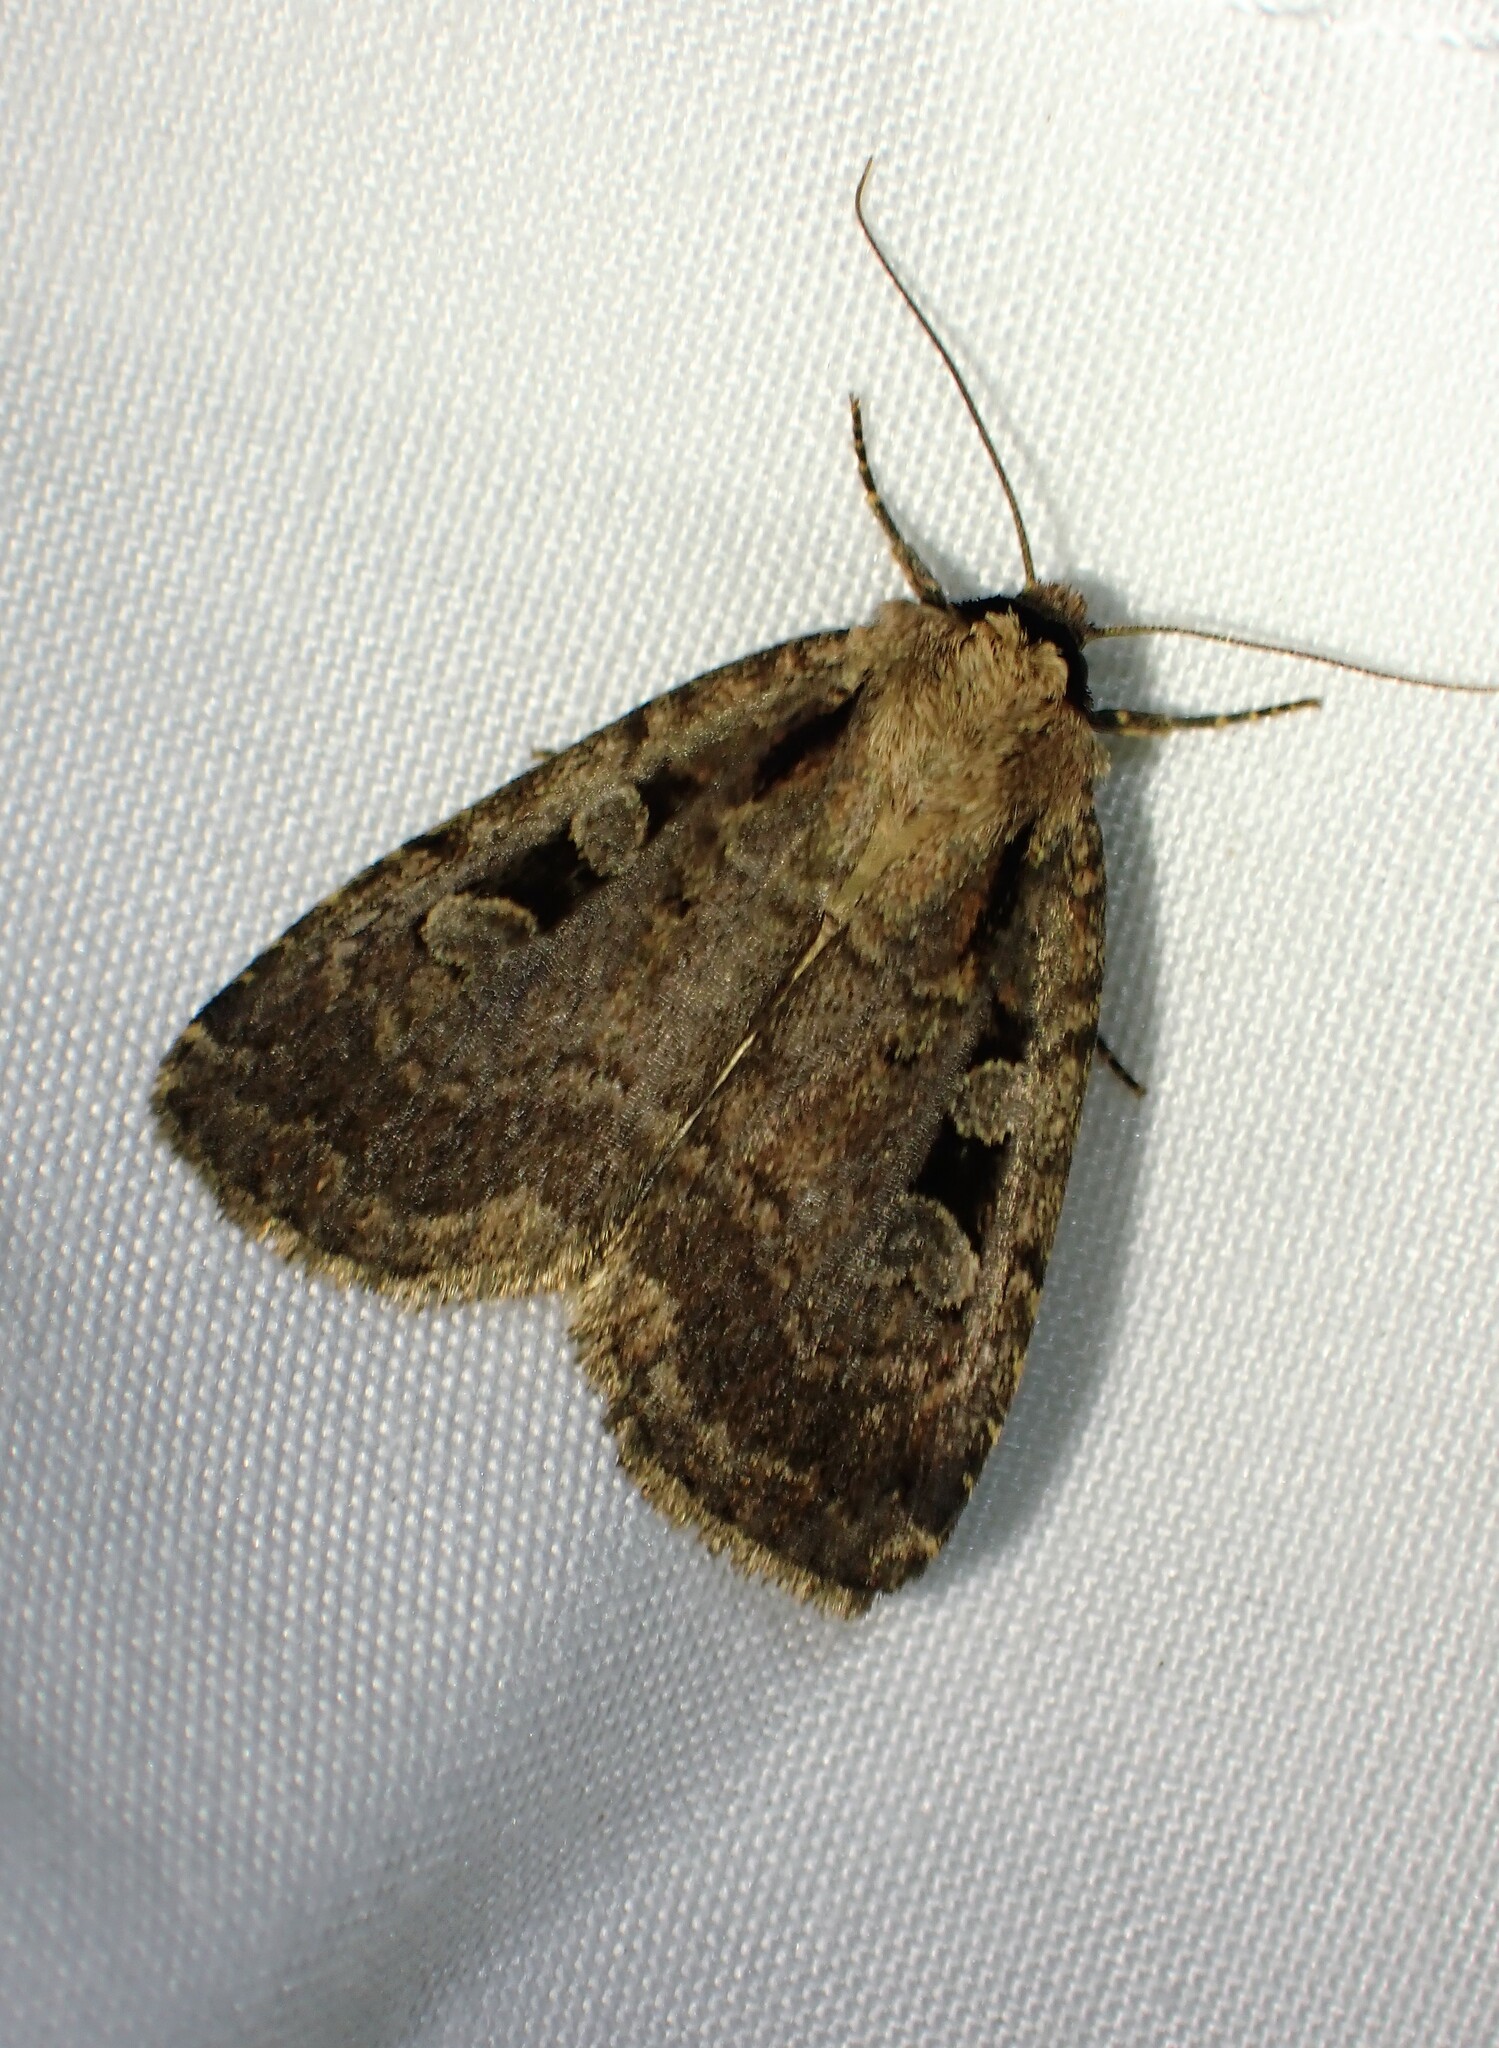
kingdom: Animalia
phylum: Arthropoda
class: Insecta
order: Lepidoptera
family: Noctuidae
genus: Eueretagrotis
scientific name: Eueretagrotis perattentus
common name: Two-spot dart moth
